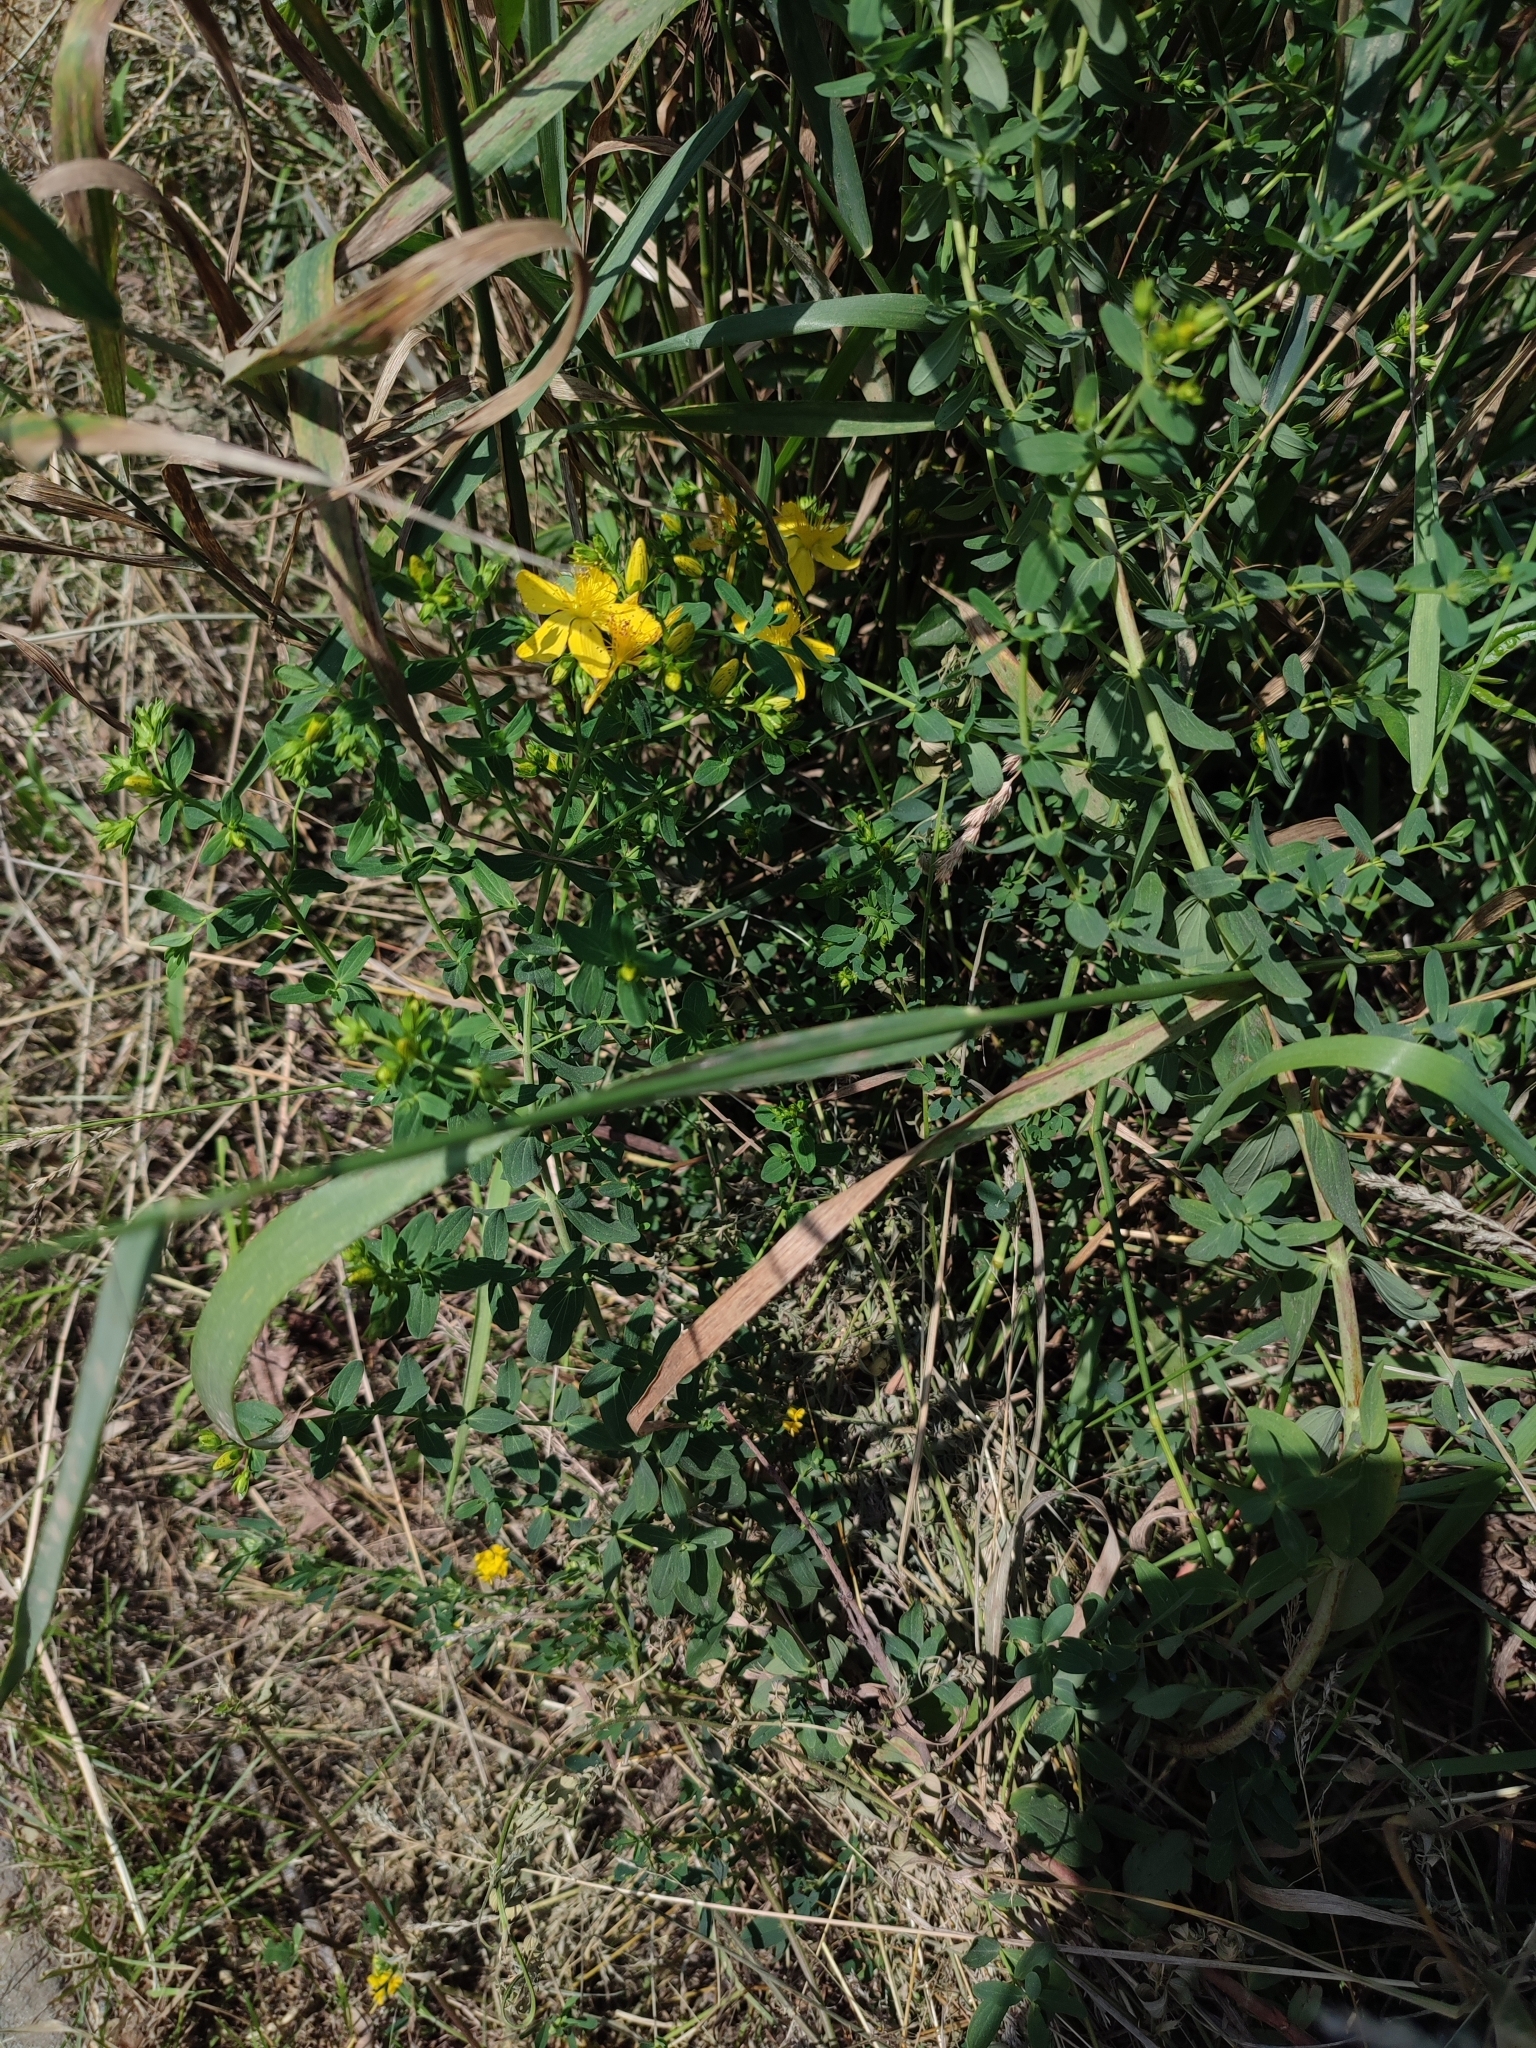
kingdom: Plantae
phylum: Tracheophyta
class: Magnoliopsida
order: Malpighiales
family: Hypericaceae
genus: Hypericum
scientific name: Hypericum perforatum
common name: Common st. johnswort
